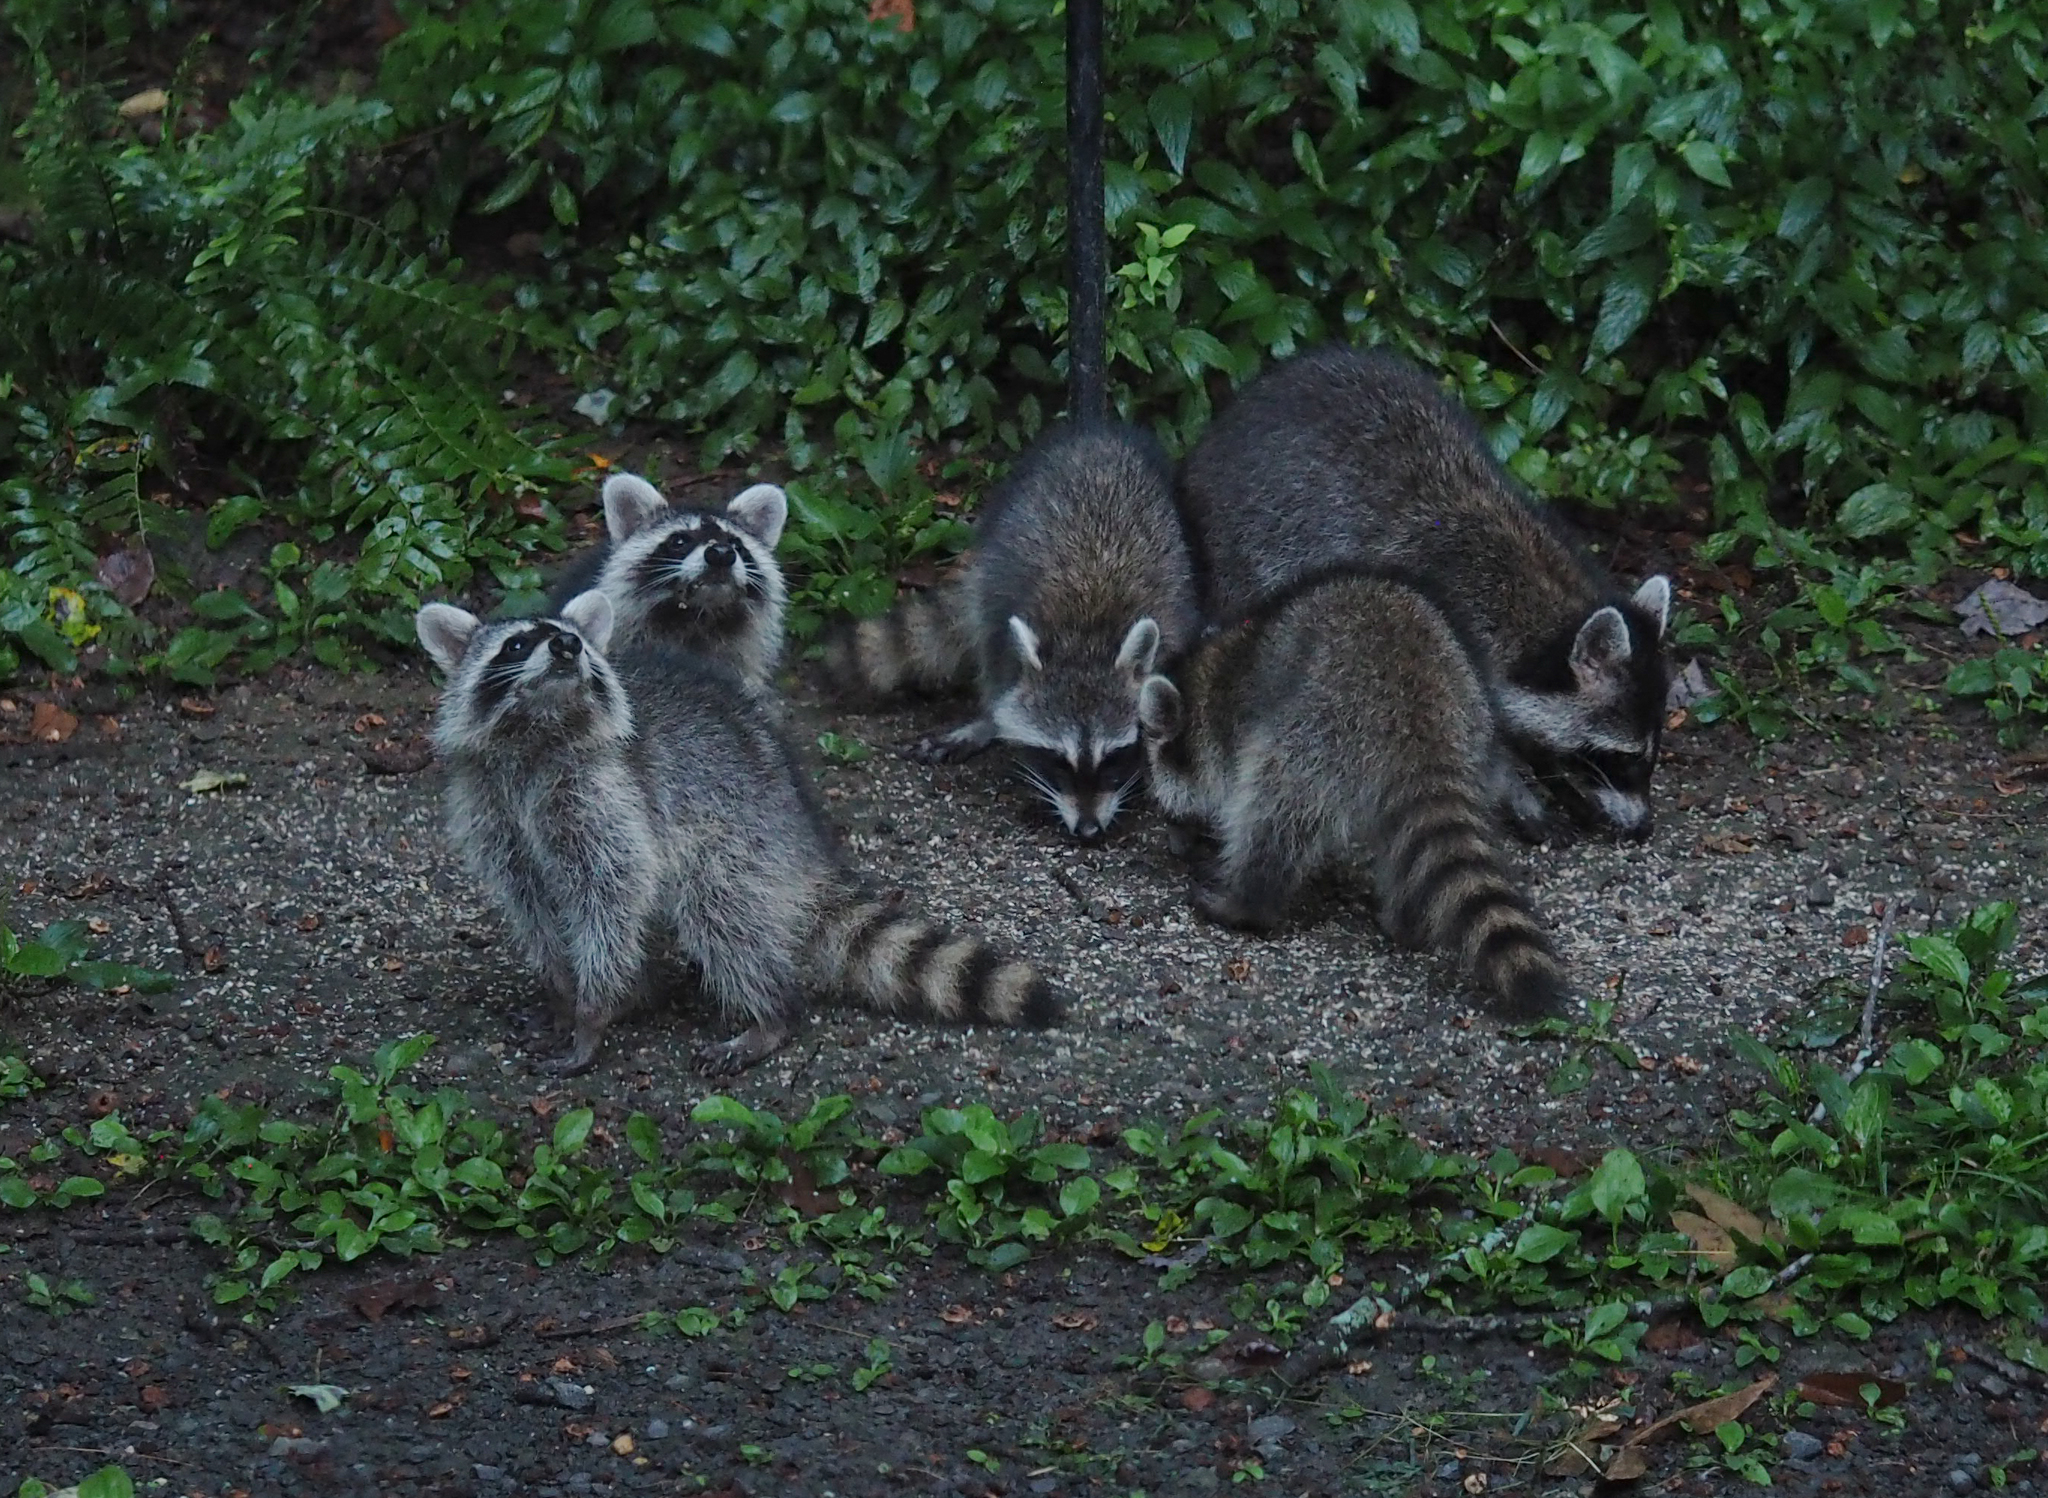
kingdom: Animalia
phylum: Chordata
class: Mammalia
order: Carnivora
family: Procyonidae
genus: Procyon
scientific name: Procyon lotor
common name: Raccoon
